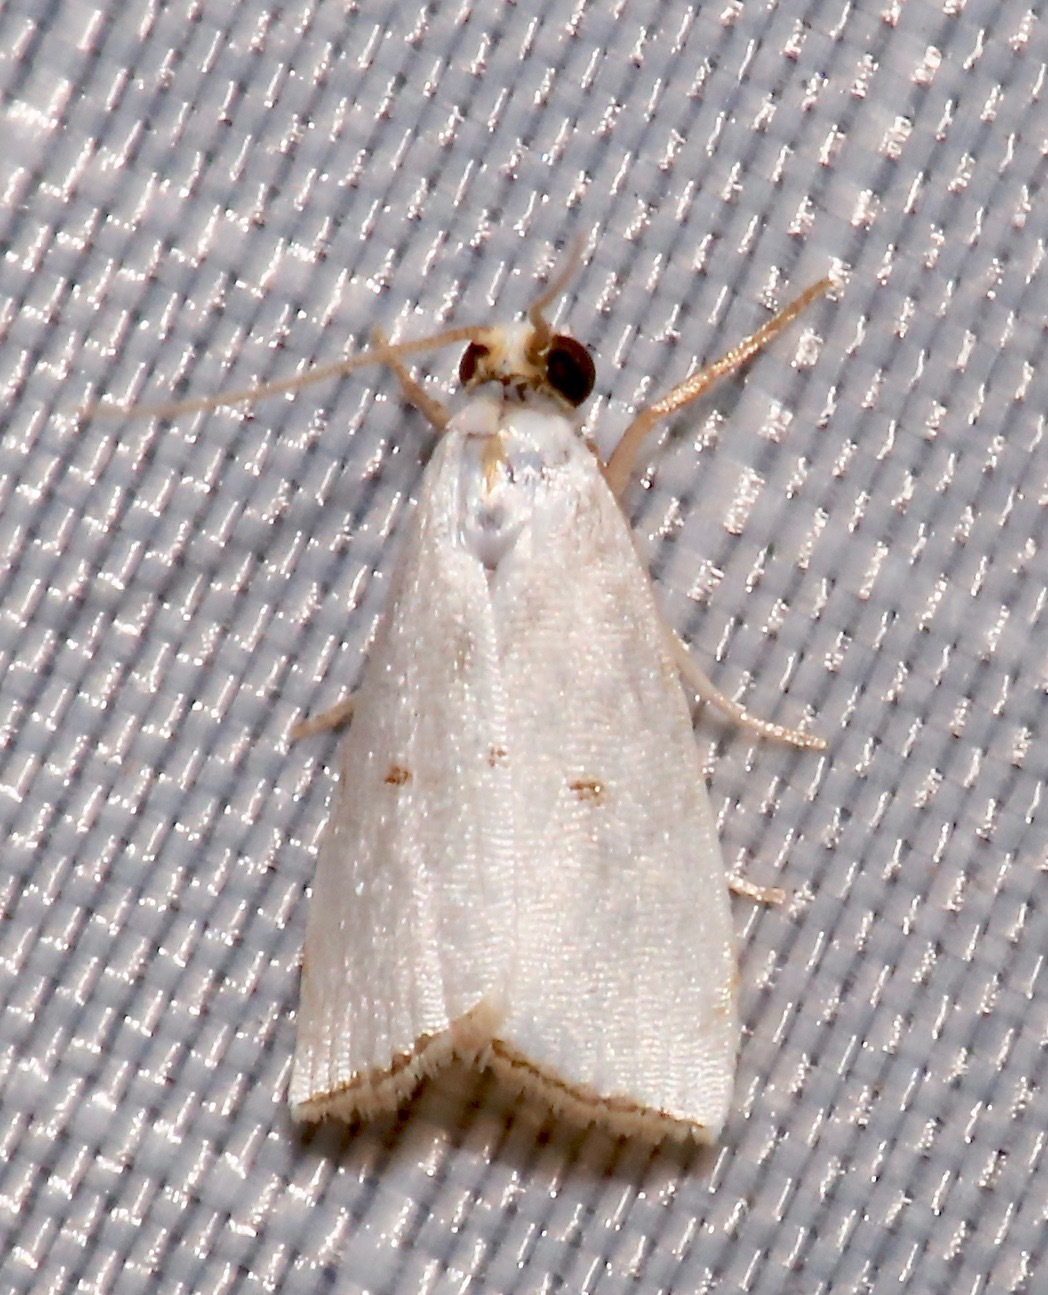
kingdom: Animalia
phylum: Arthropoda
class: Insecta
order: Lepidoptera
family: Crambidae
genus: Argyria
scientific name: Argyria pusillalis
